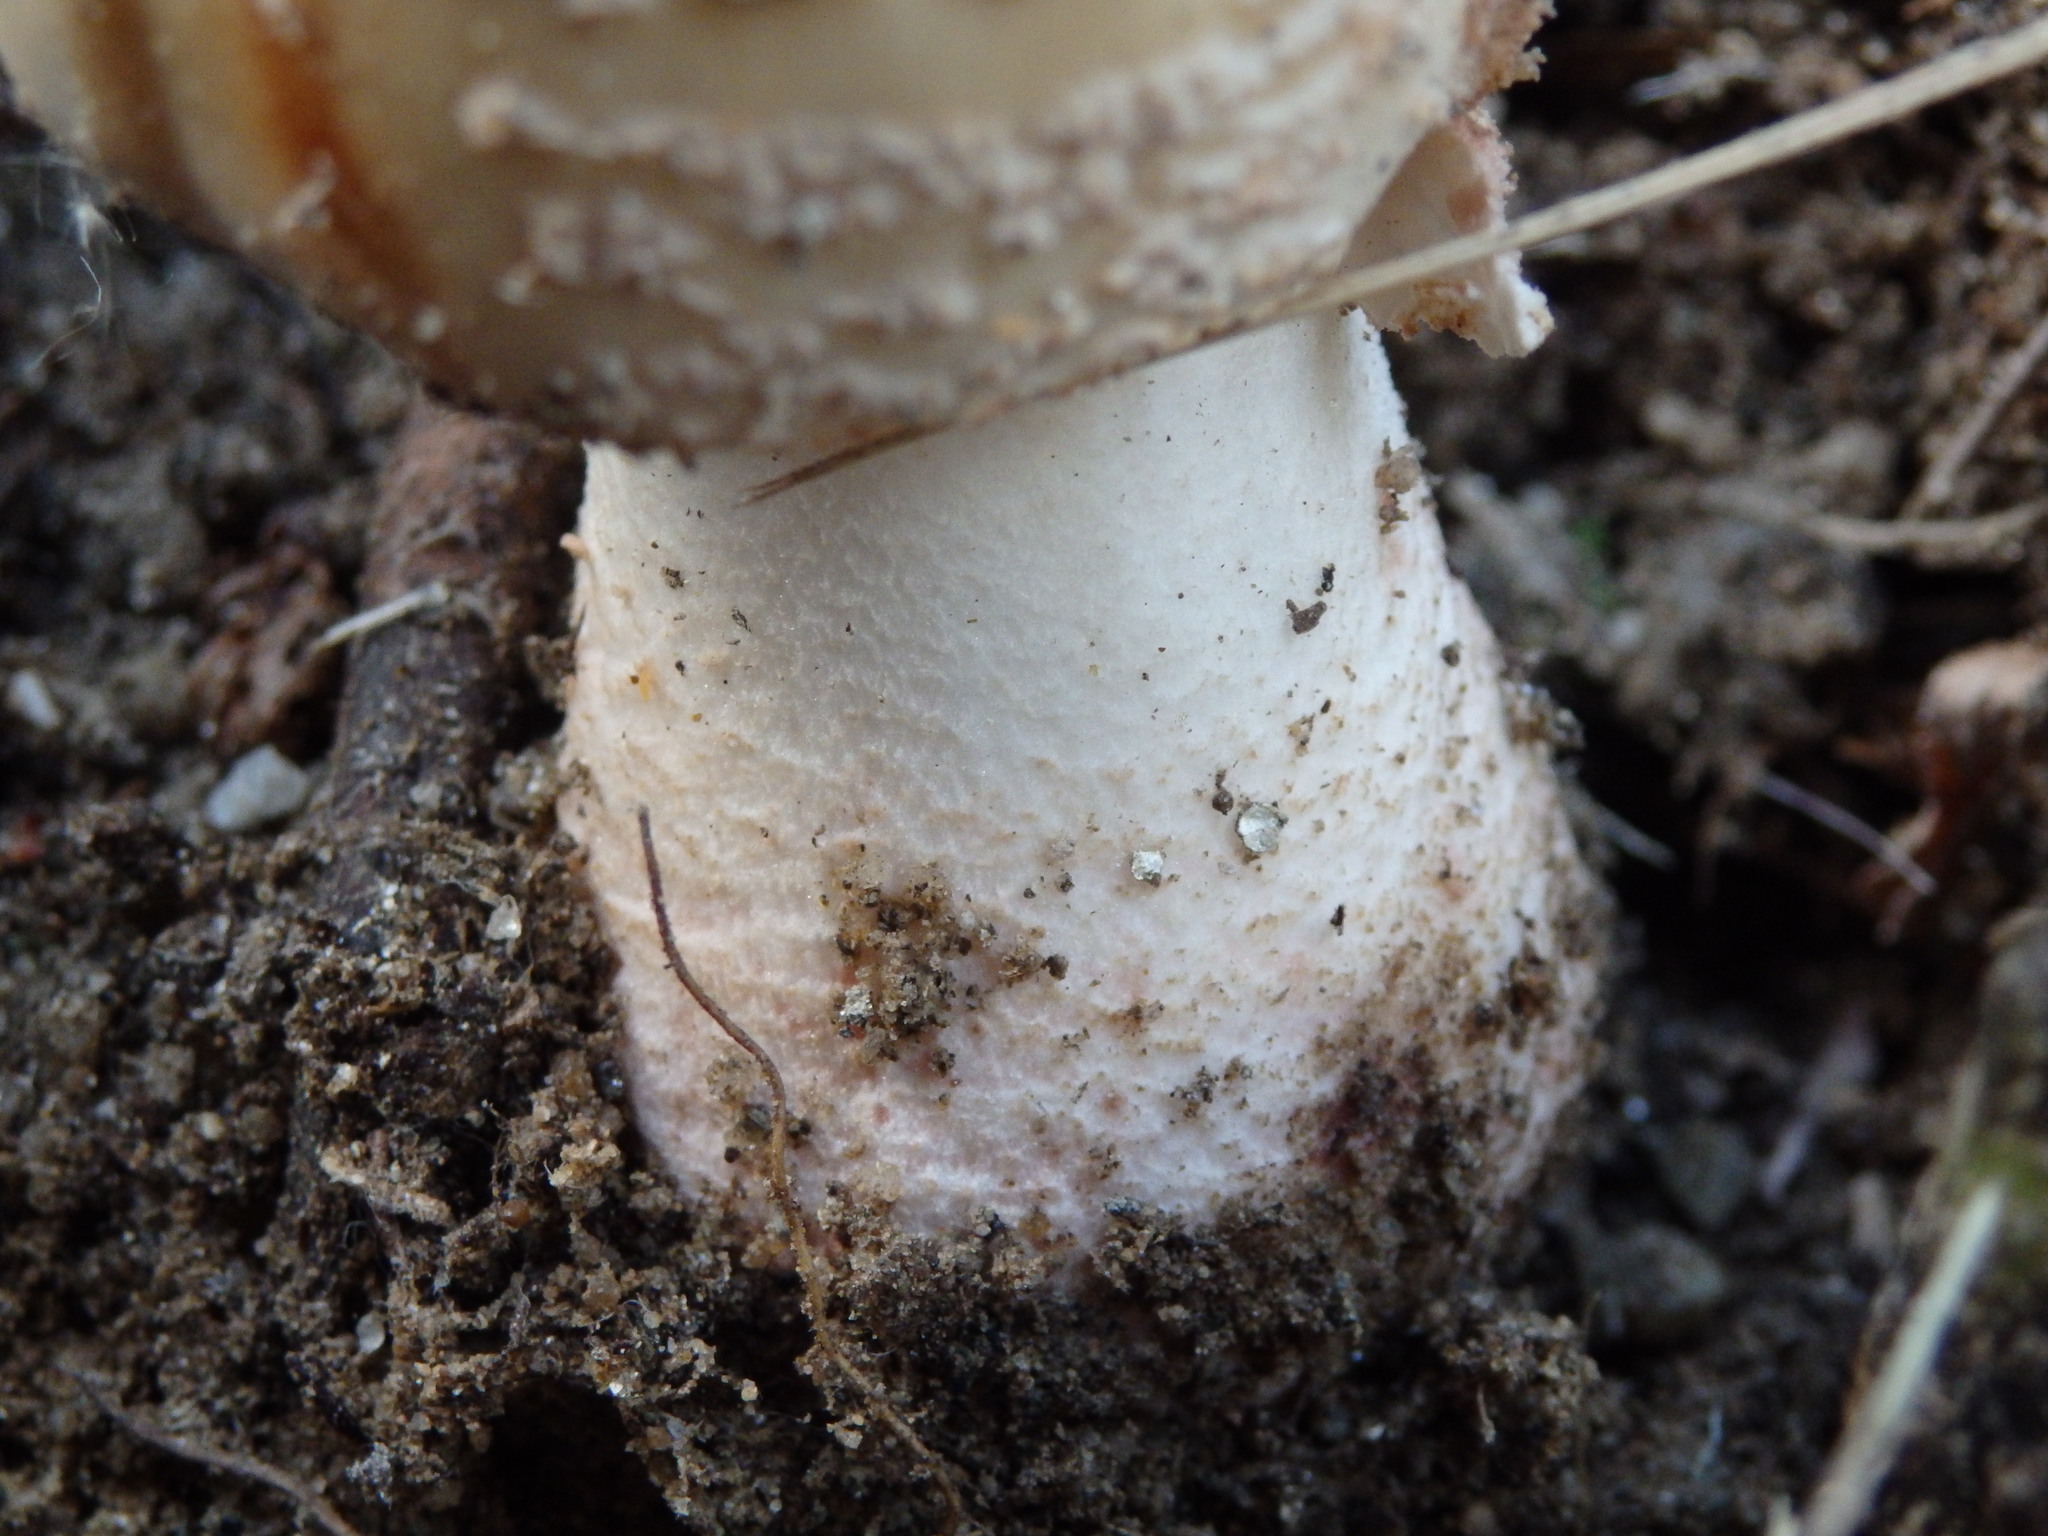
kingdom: Fungi
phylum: Basidiomycota
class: Agaricomycetes
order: Agaricales
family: Amanitaceae
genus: Amanita
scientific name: Amanita rubescens
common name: Blusher
